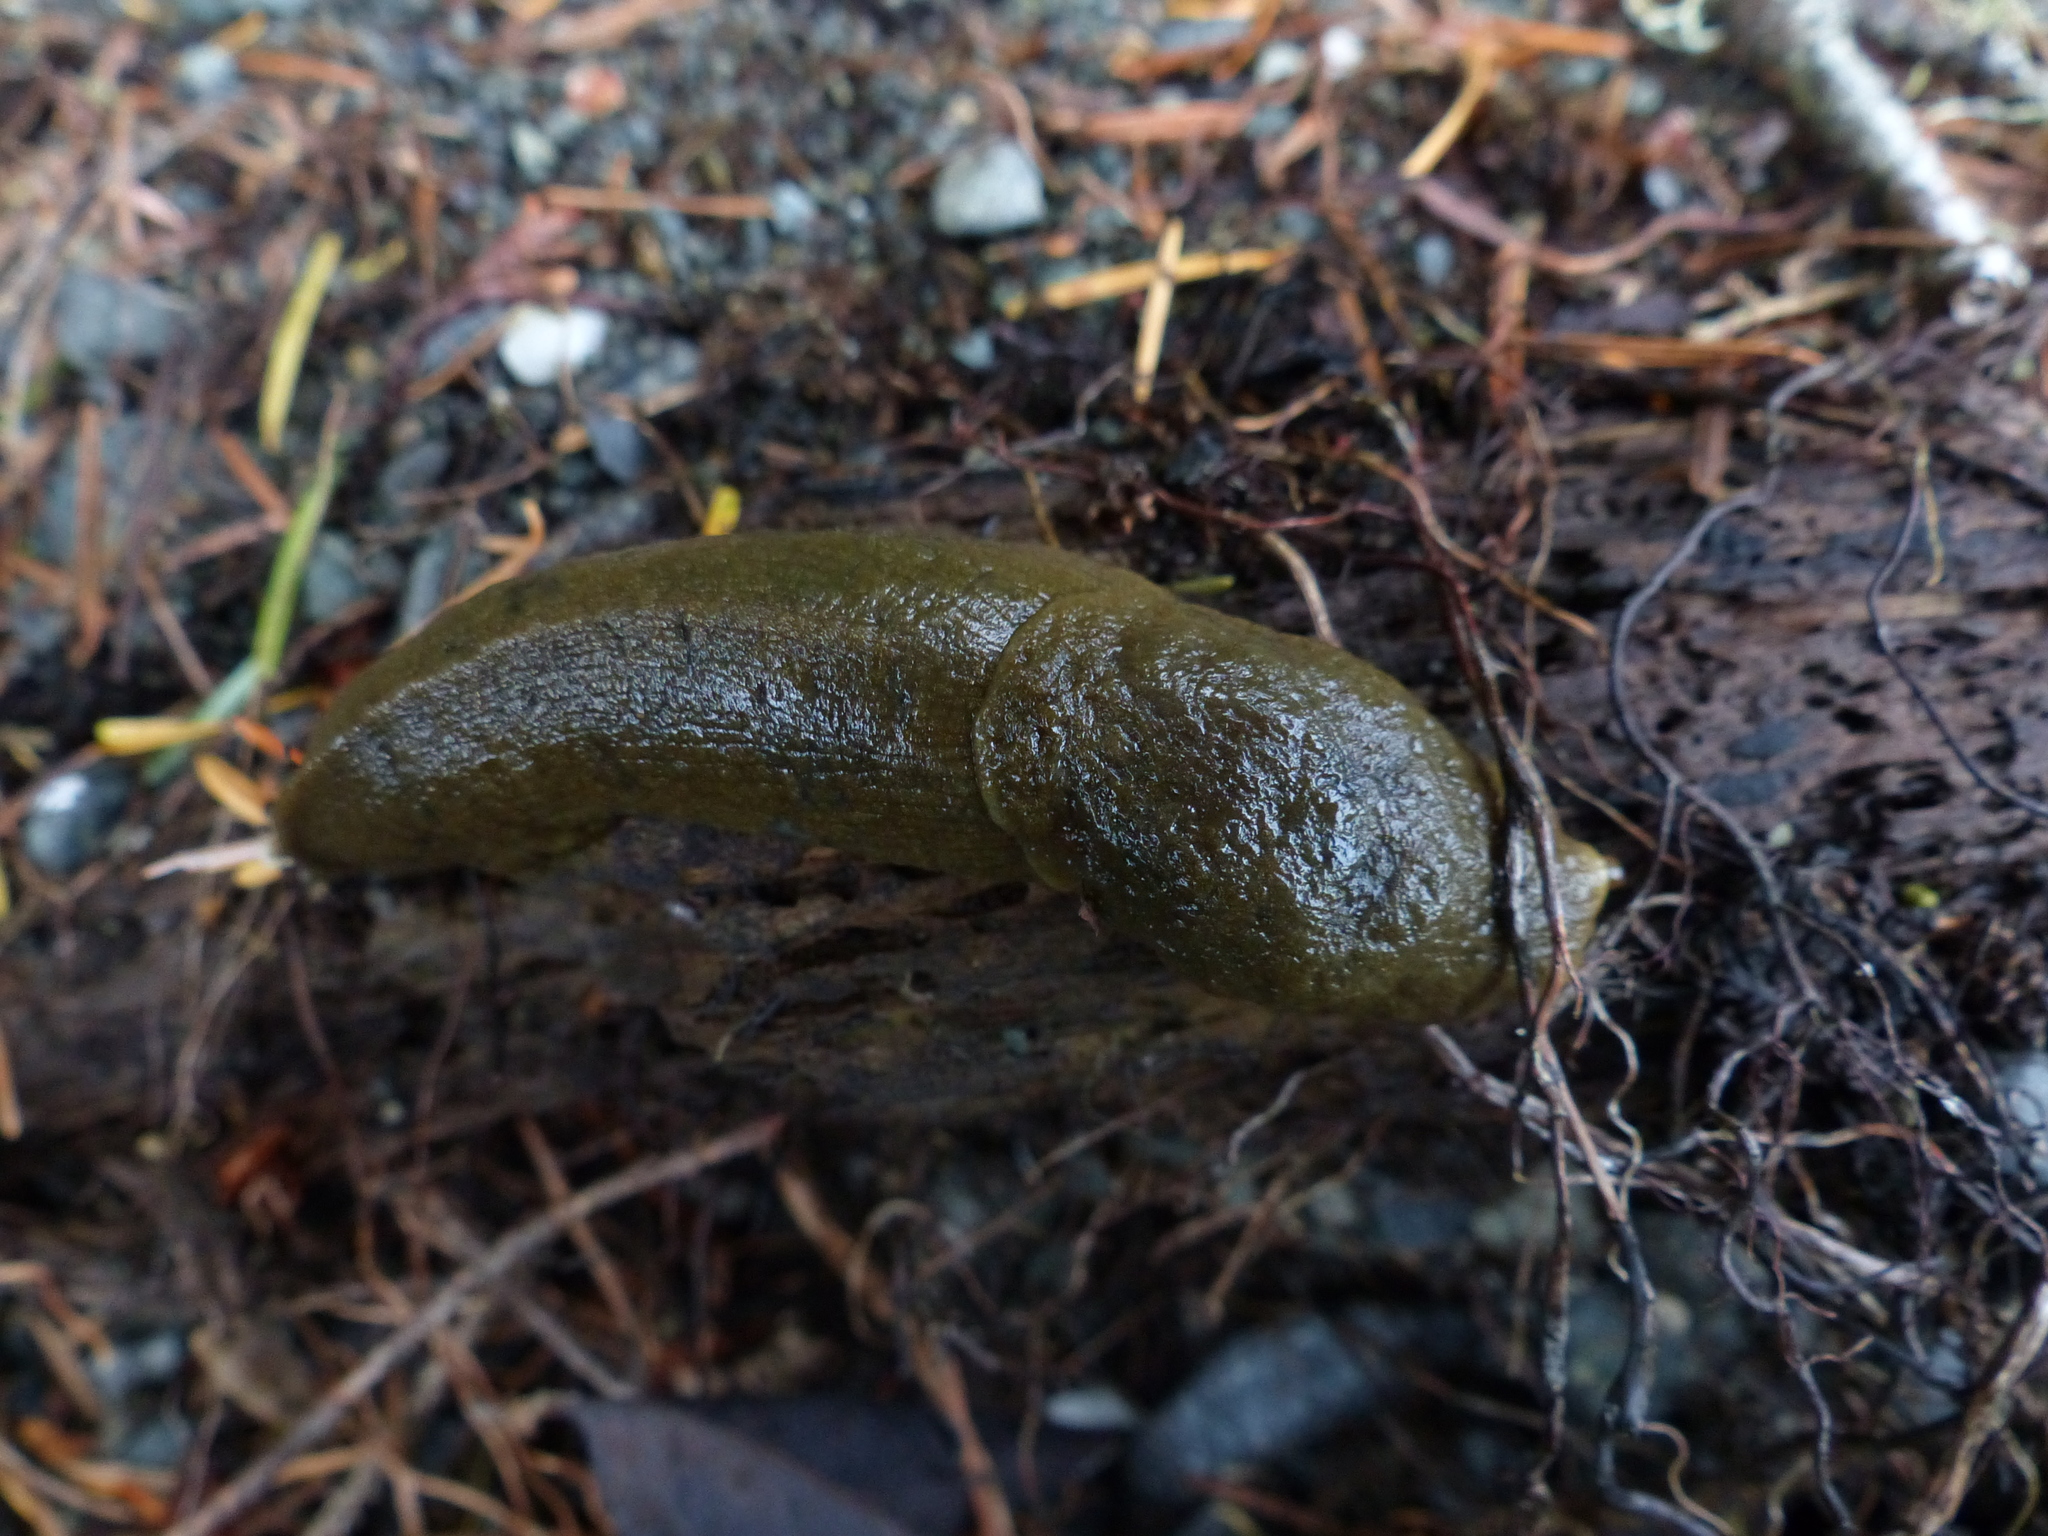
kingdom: Animalia
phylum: Mollusca
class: Gastropoda
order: Stylommatophora
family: Ariolimacidae
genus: Ariolimax
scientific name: Ariolimax columbianus
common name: Pacific banana slug
